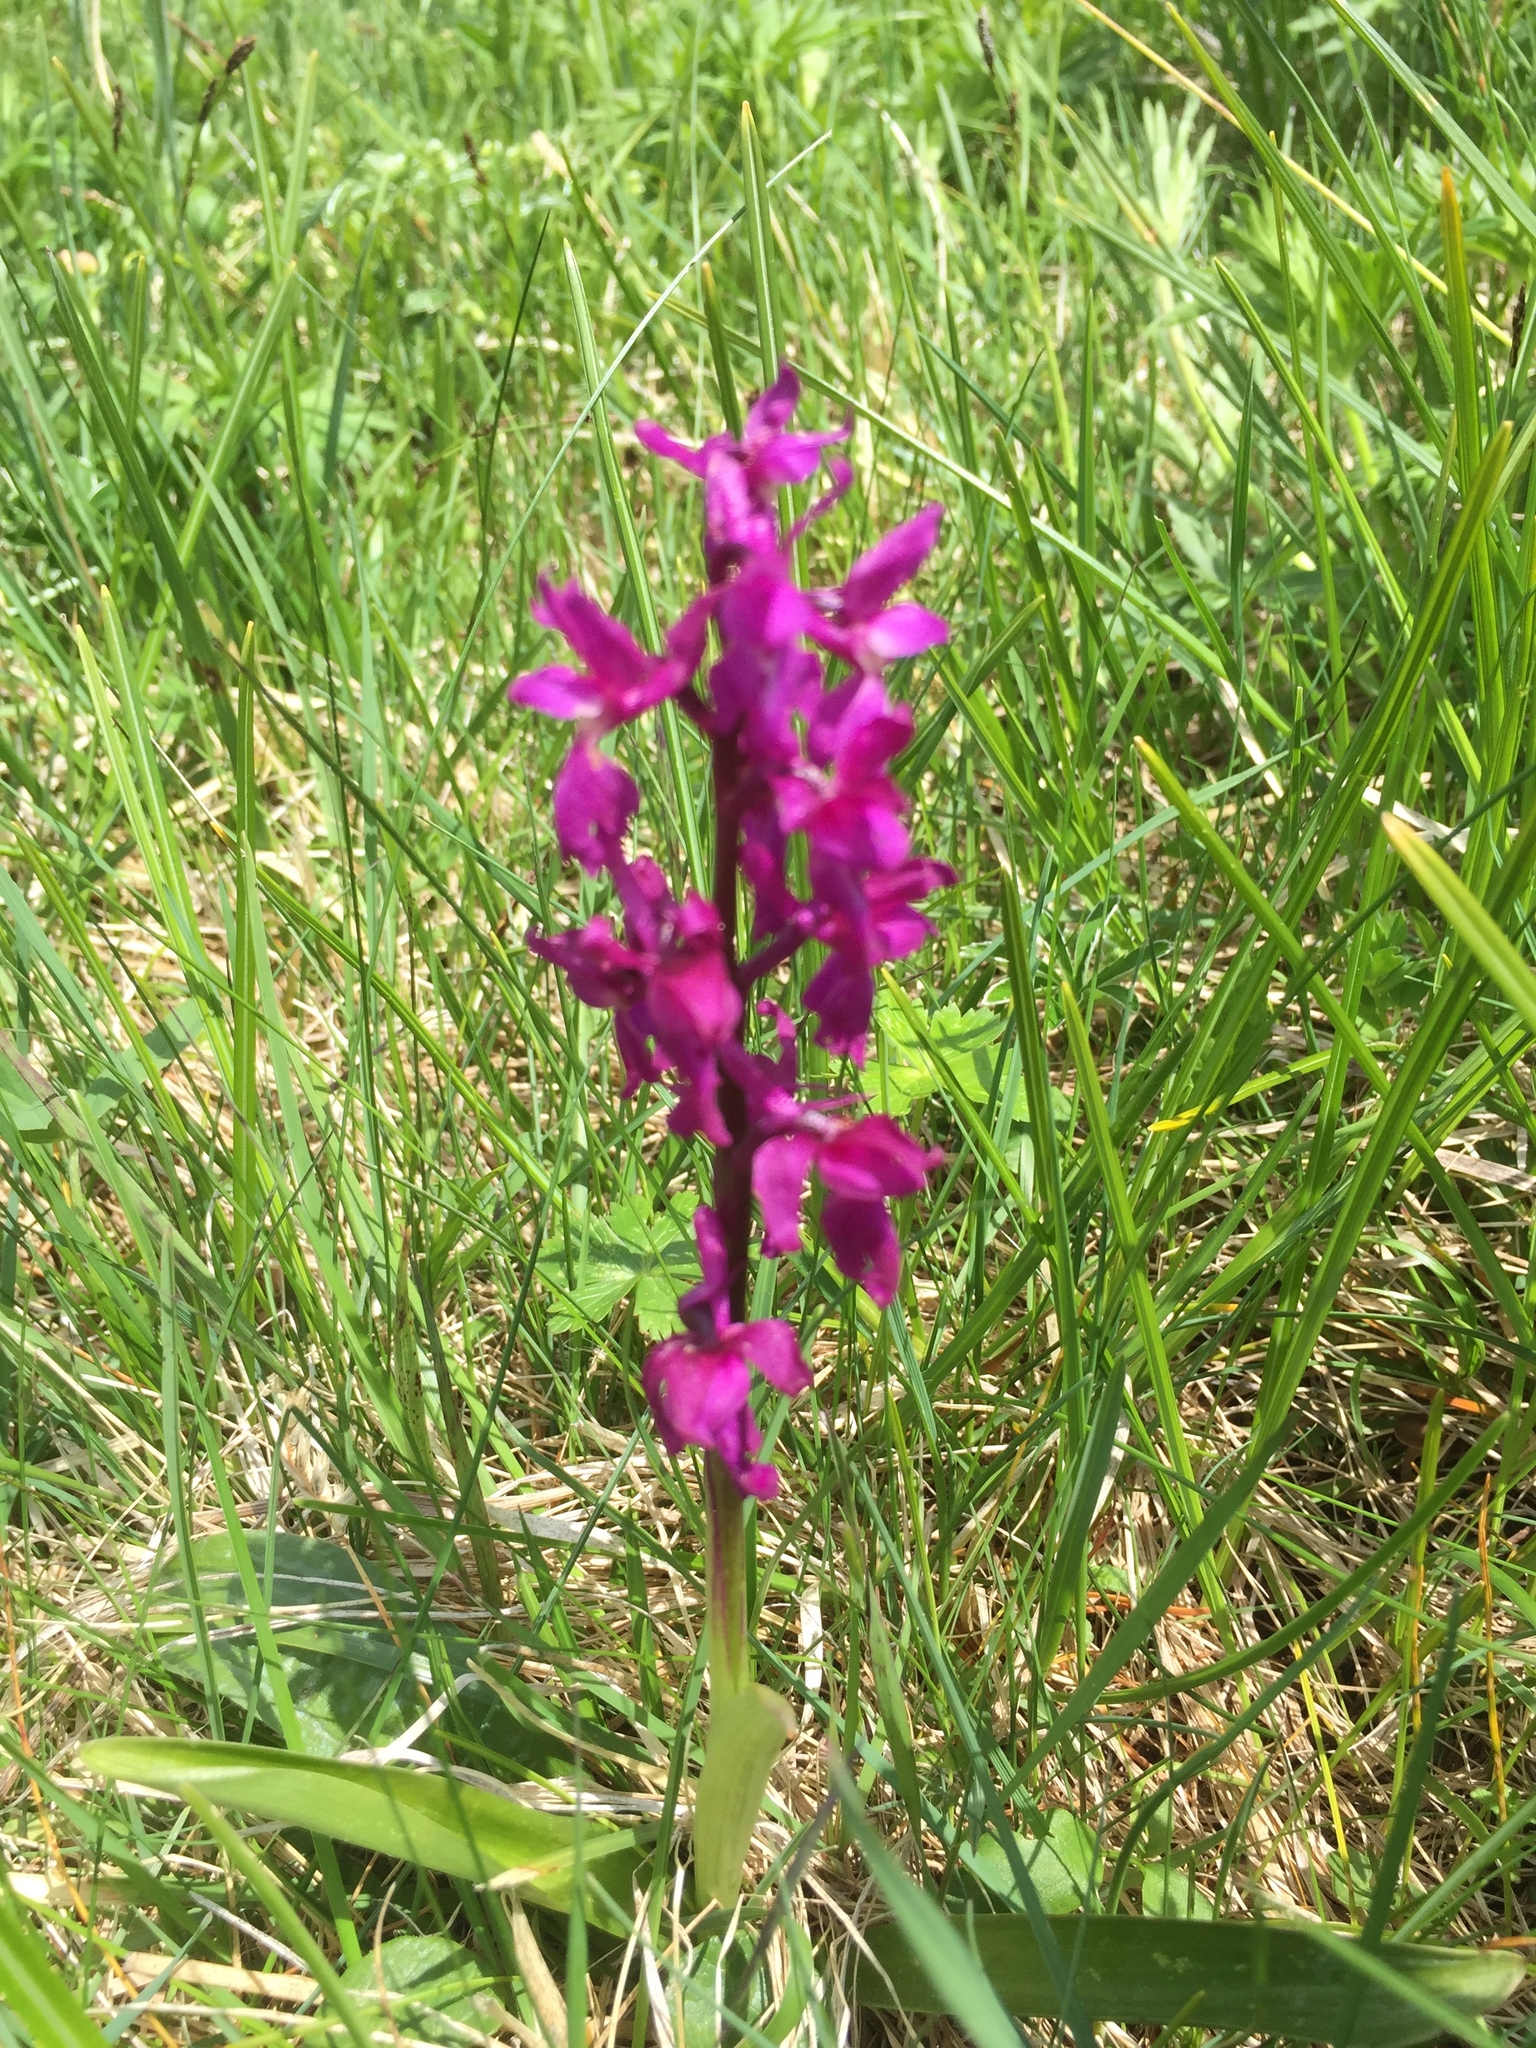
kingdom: Plantae
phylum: Tracheophyta
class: Liliopsida
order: Asparagales
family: Orchidaceae
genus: Orchis
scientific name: Orchis mascula
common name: Early-purple orchid
